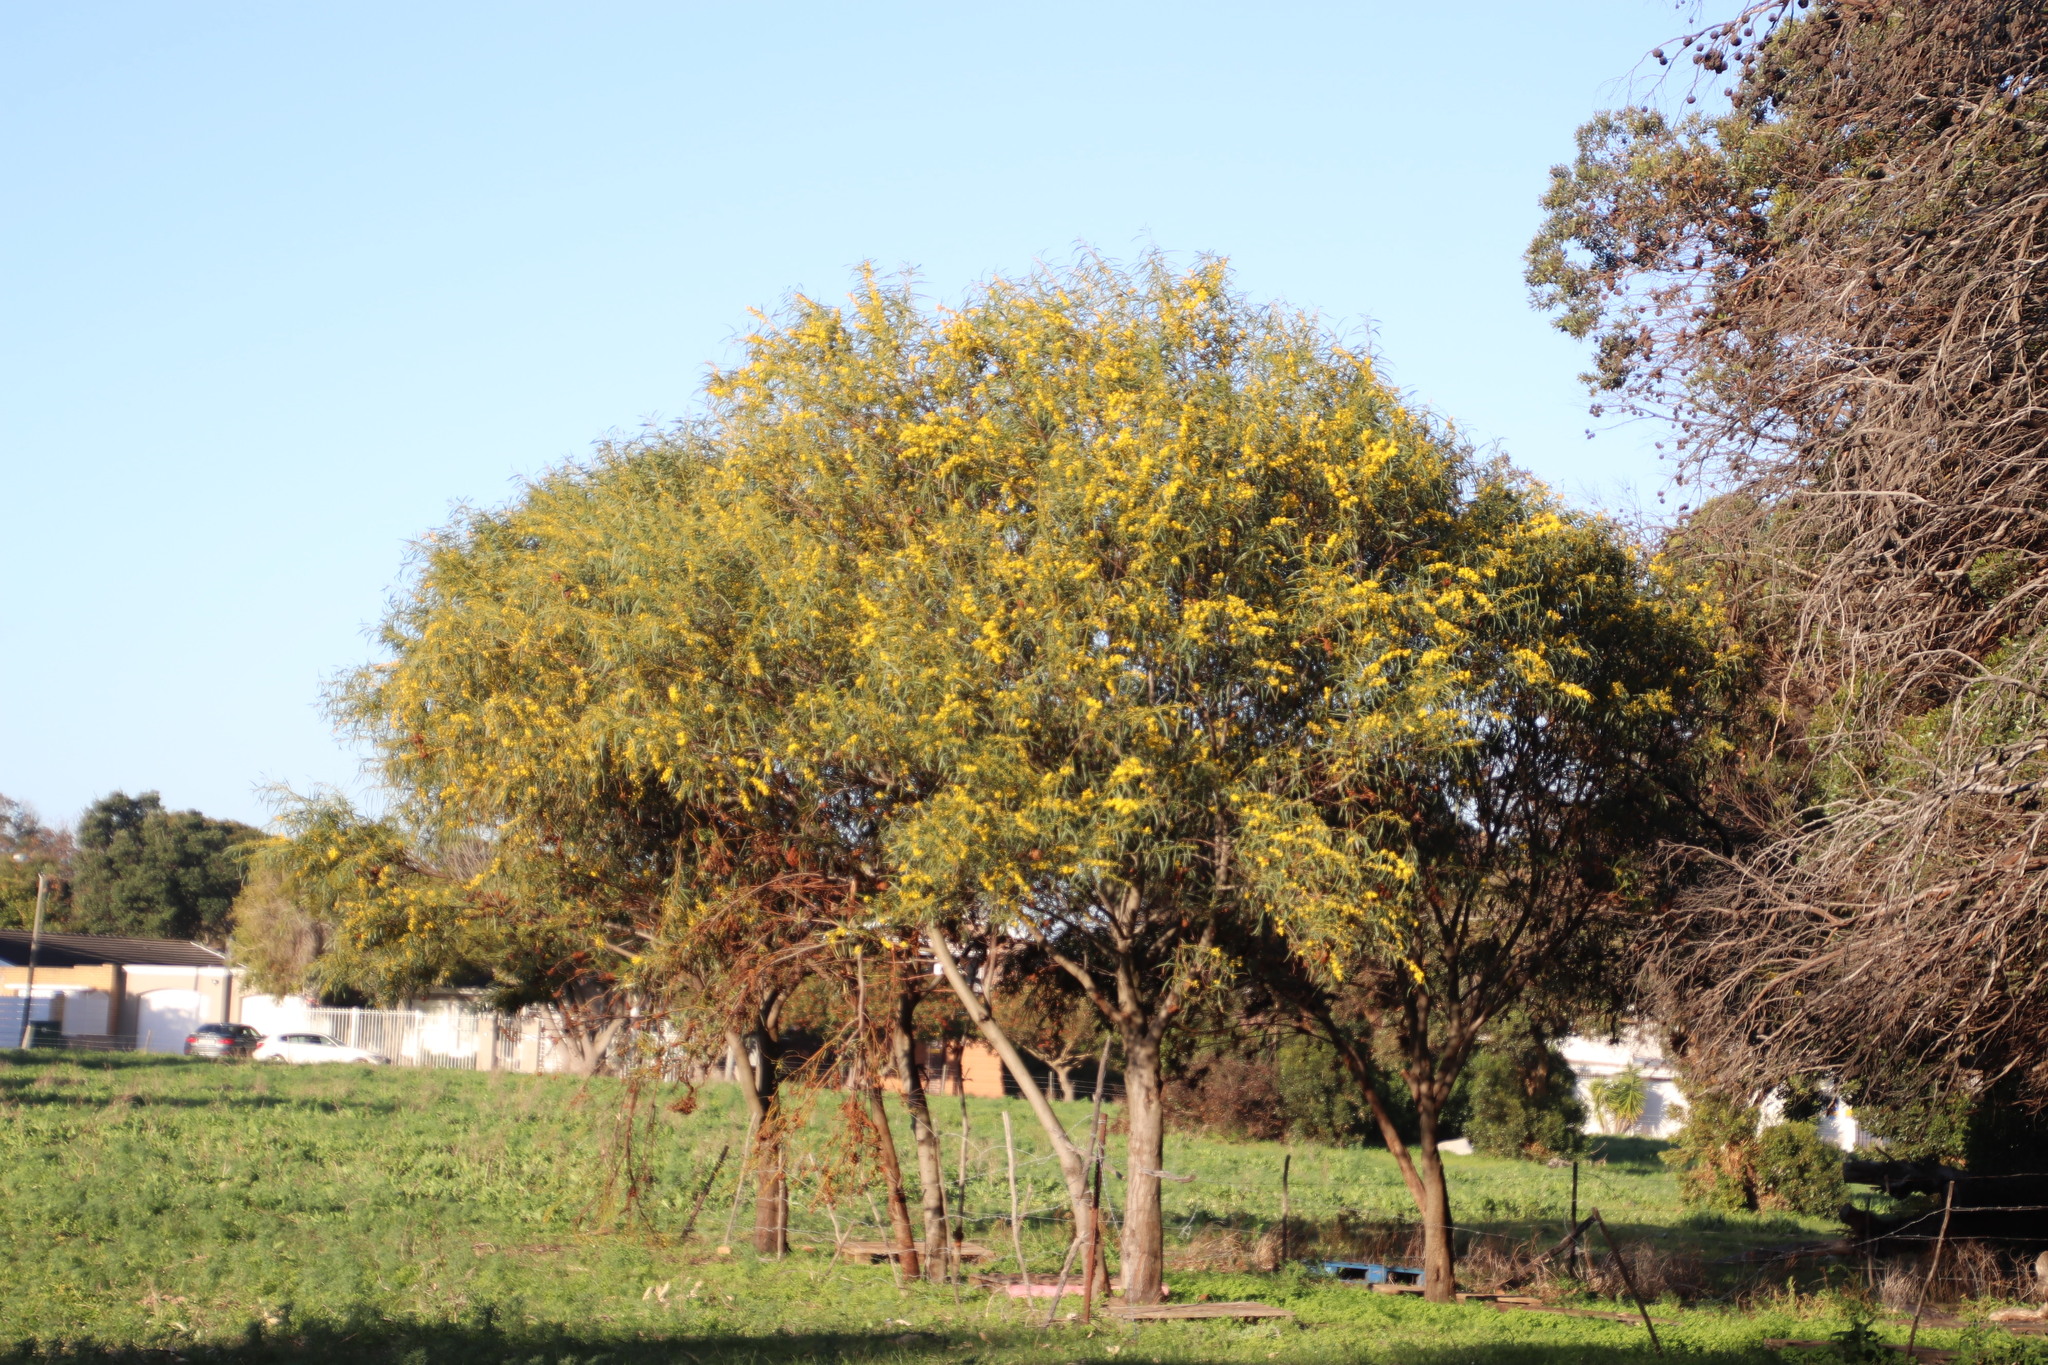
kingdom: Plantae
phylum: Tracheophyta
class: Magnoliopsida
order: Fabales
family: Fabaceae
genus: Acacia
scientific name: Acacia saligna
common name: Orange wattle
